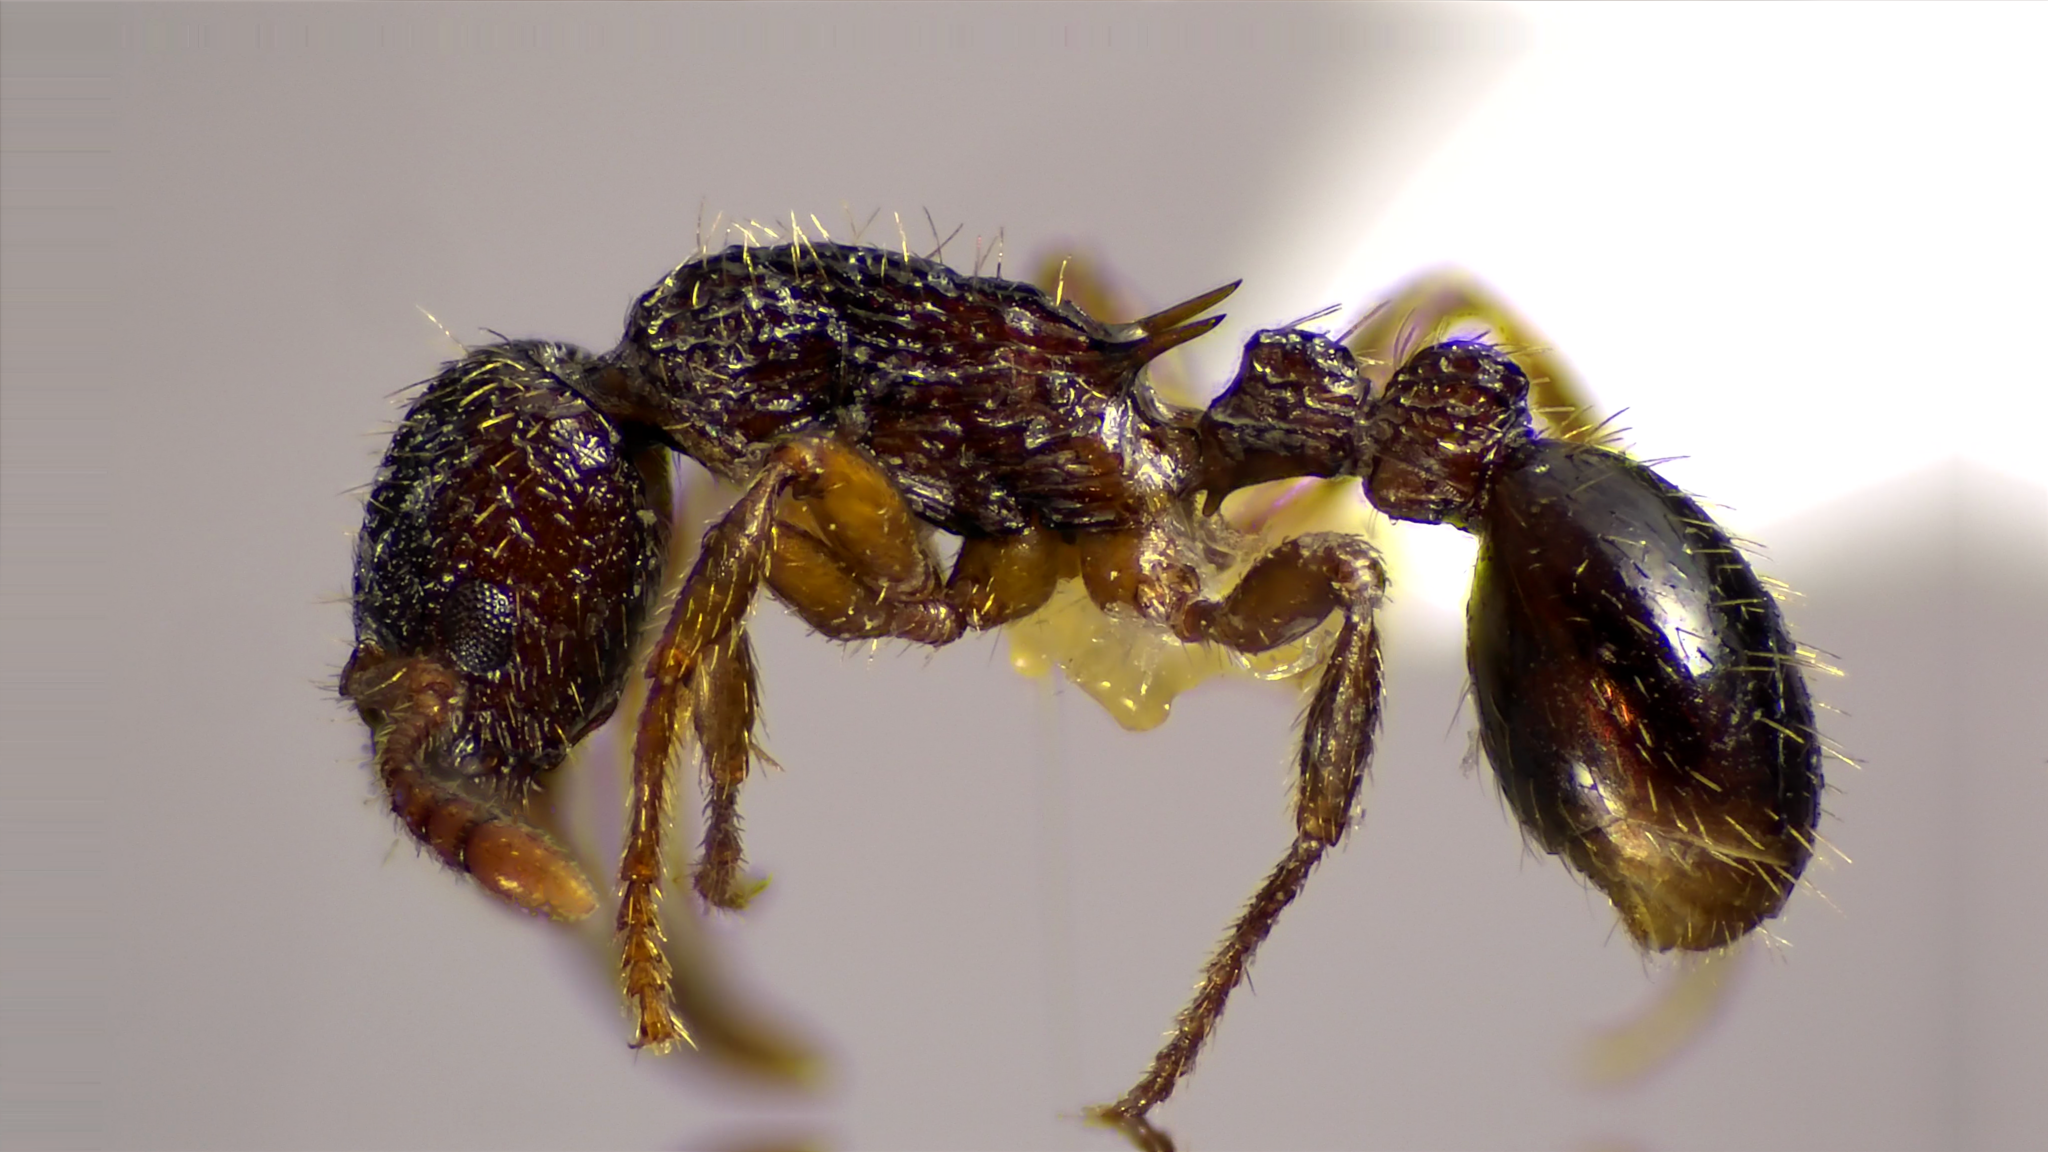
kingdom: Animalia
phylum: Arthropoda
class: Insecta
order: Hymenoptera
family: Formicidae
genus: Myrmica
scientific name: Myrmica latifrons
